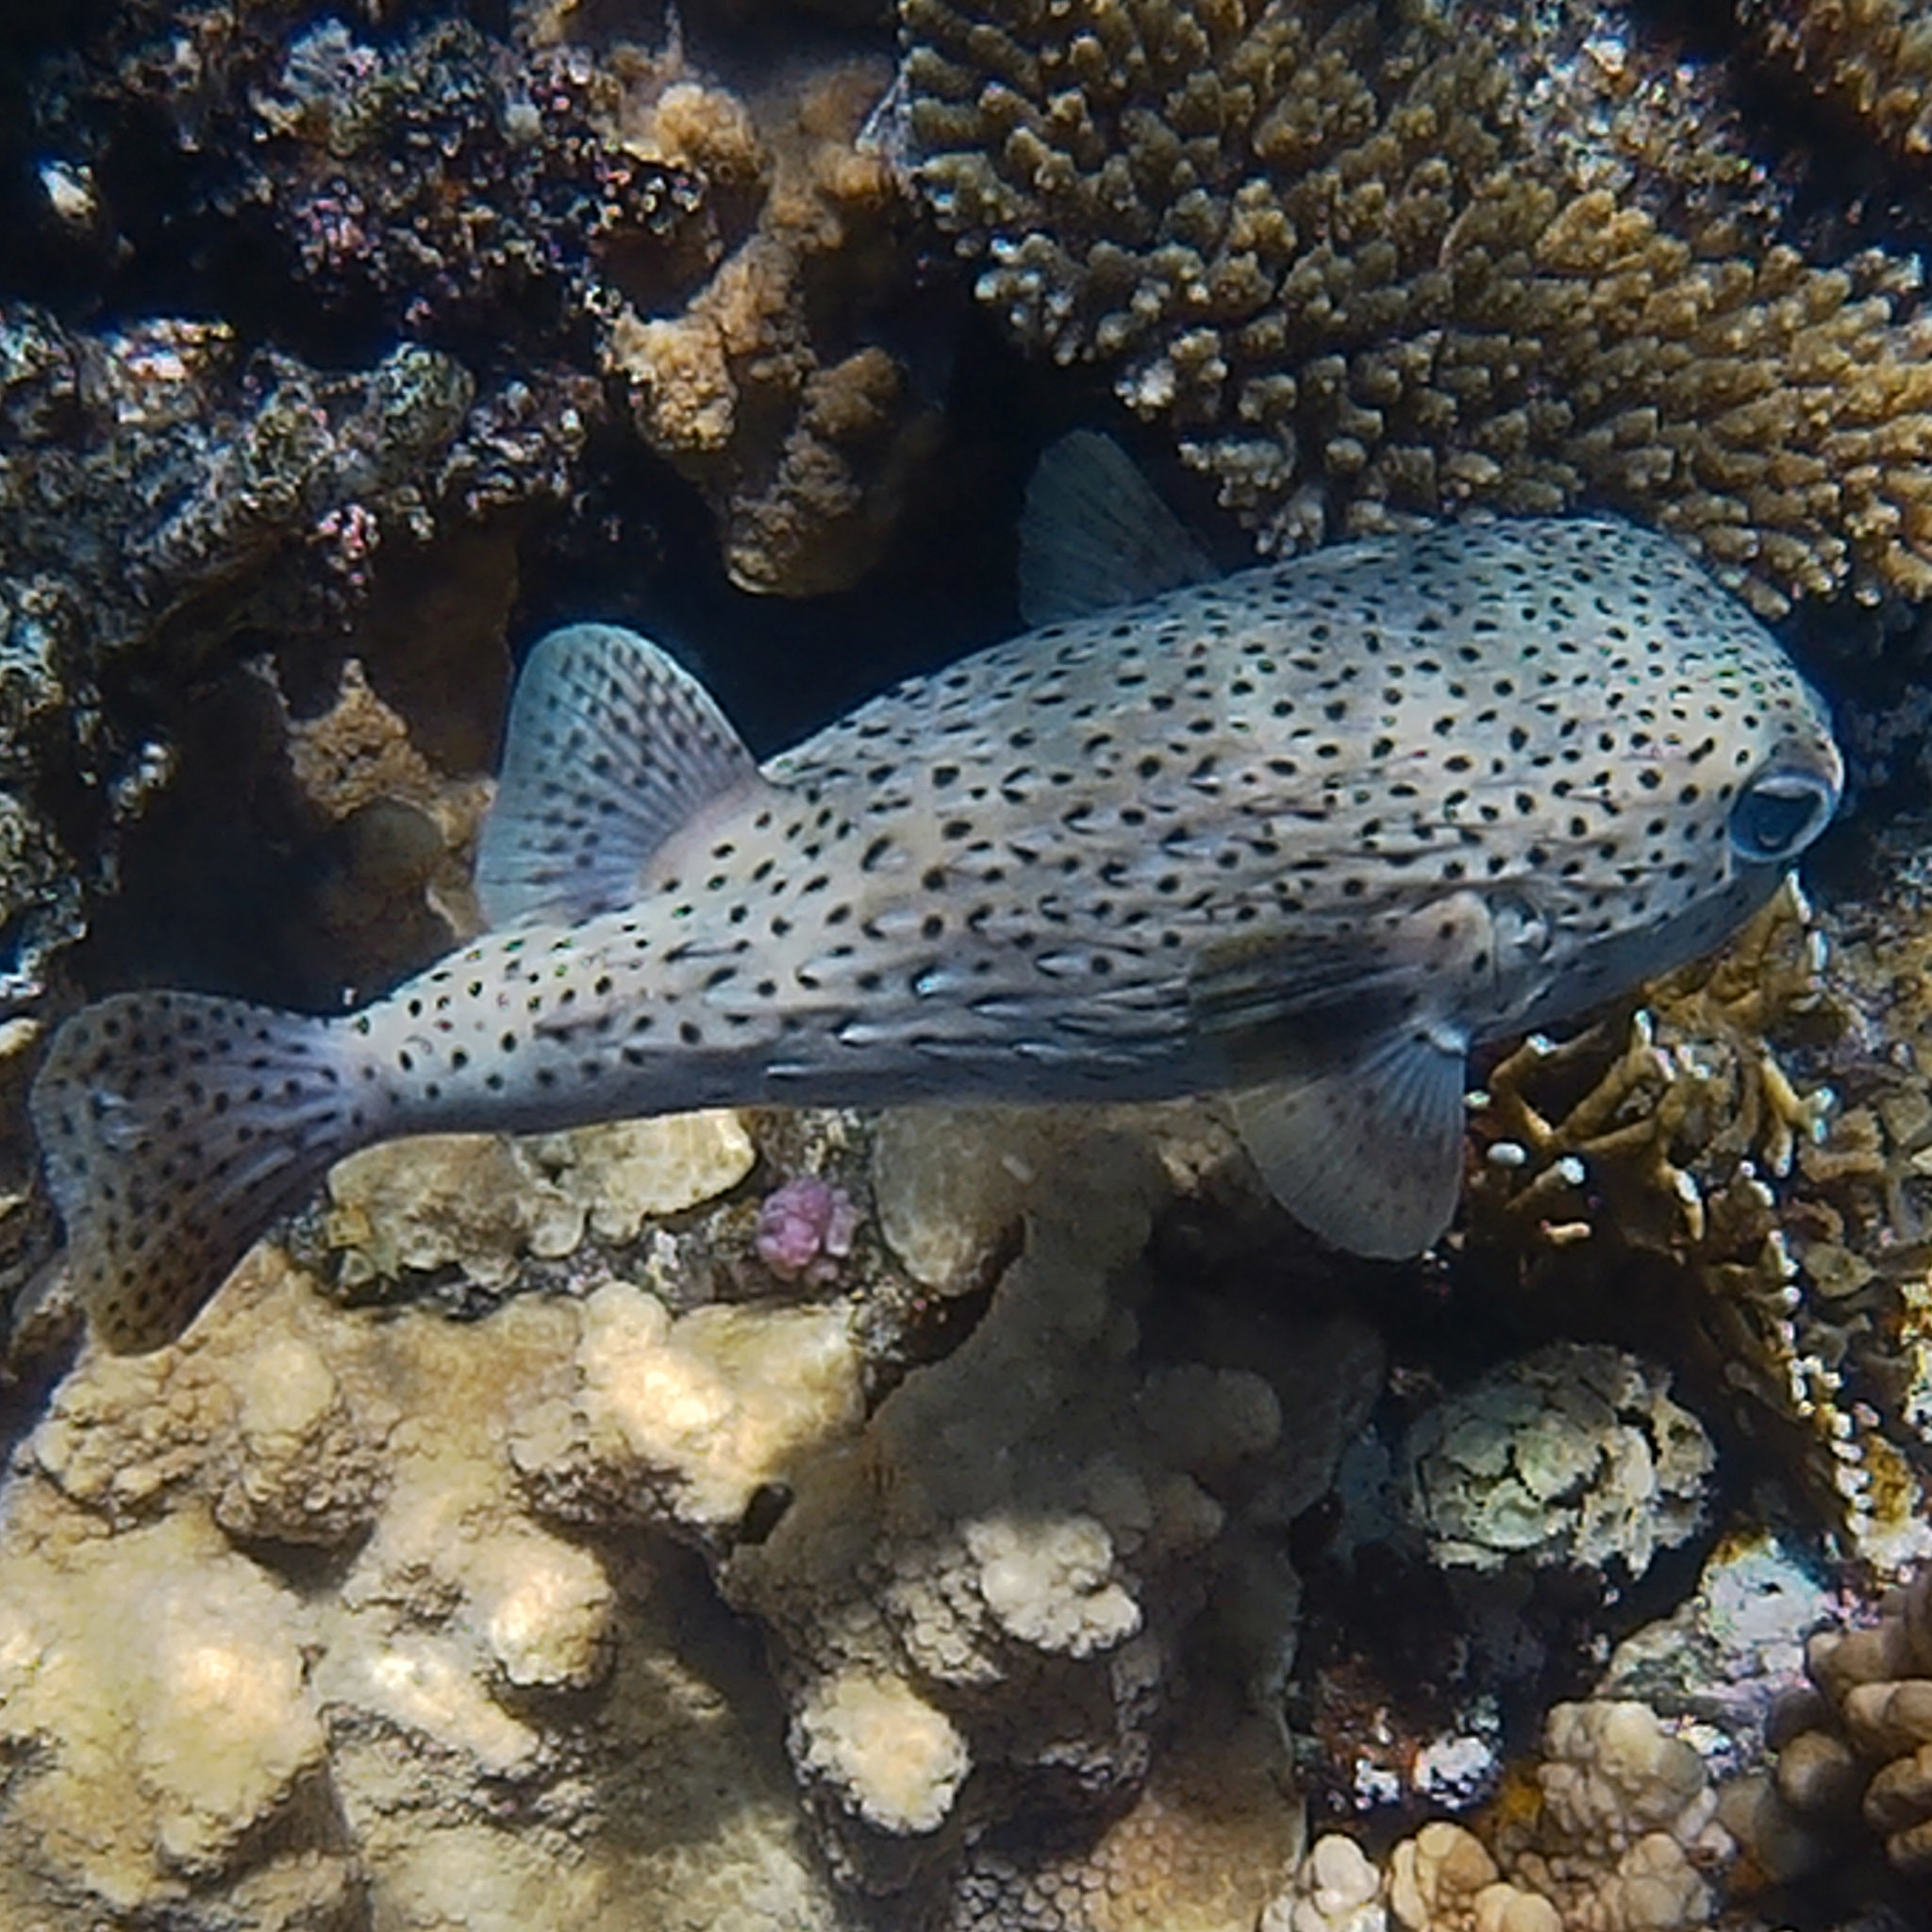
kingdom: Animalia
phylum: Chordata
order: Tetraodontiformes
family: Diodontidae
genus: Diodon
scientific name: Diodon hystrix
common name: Giant porcupinefish
